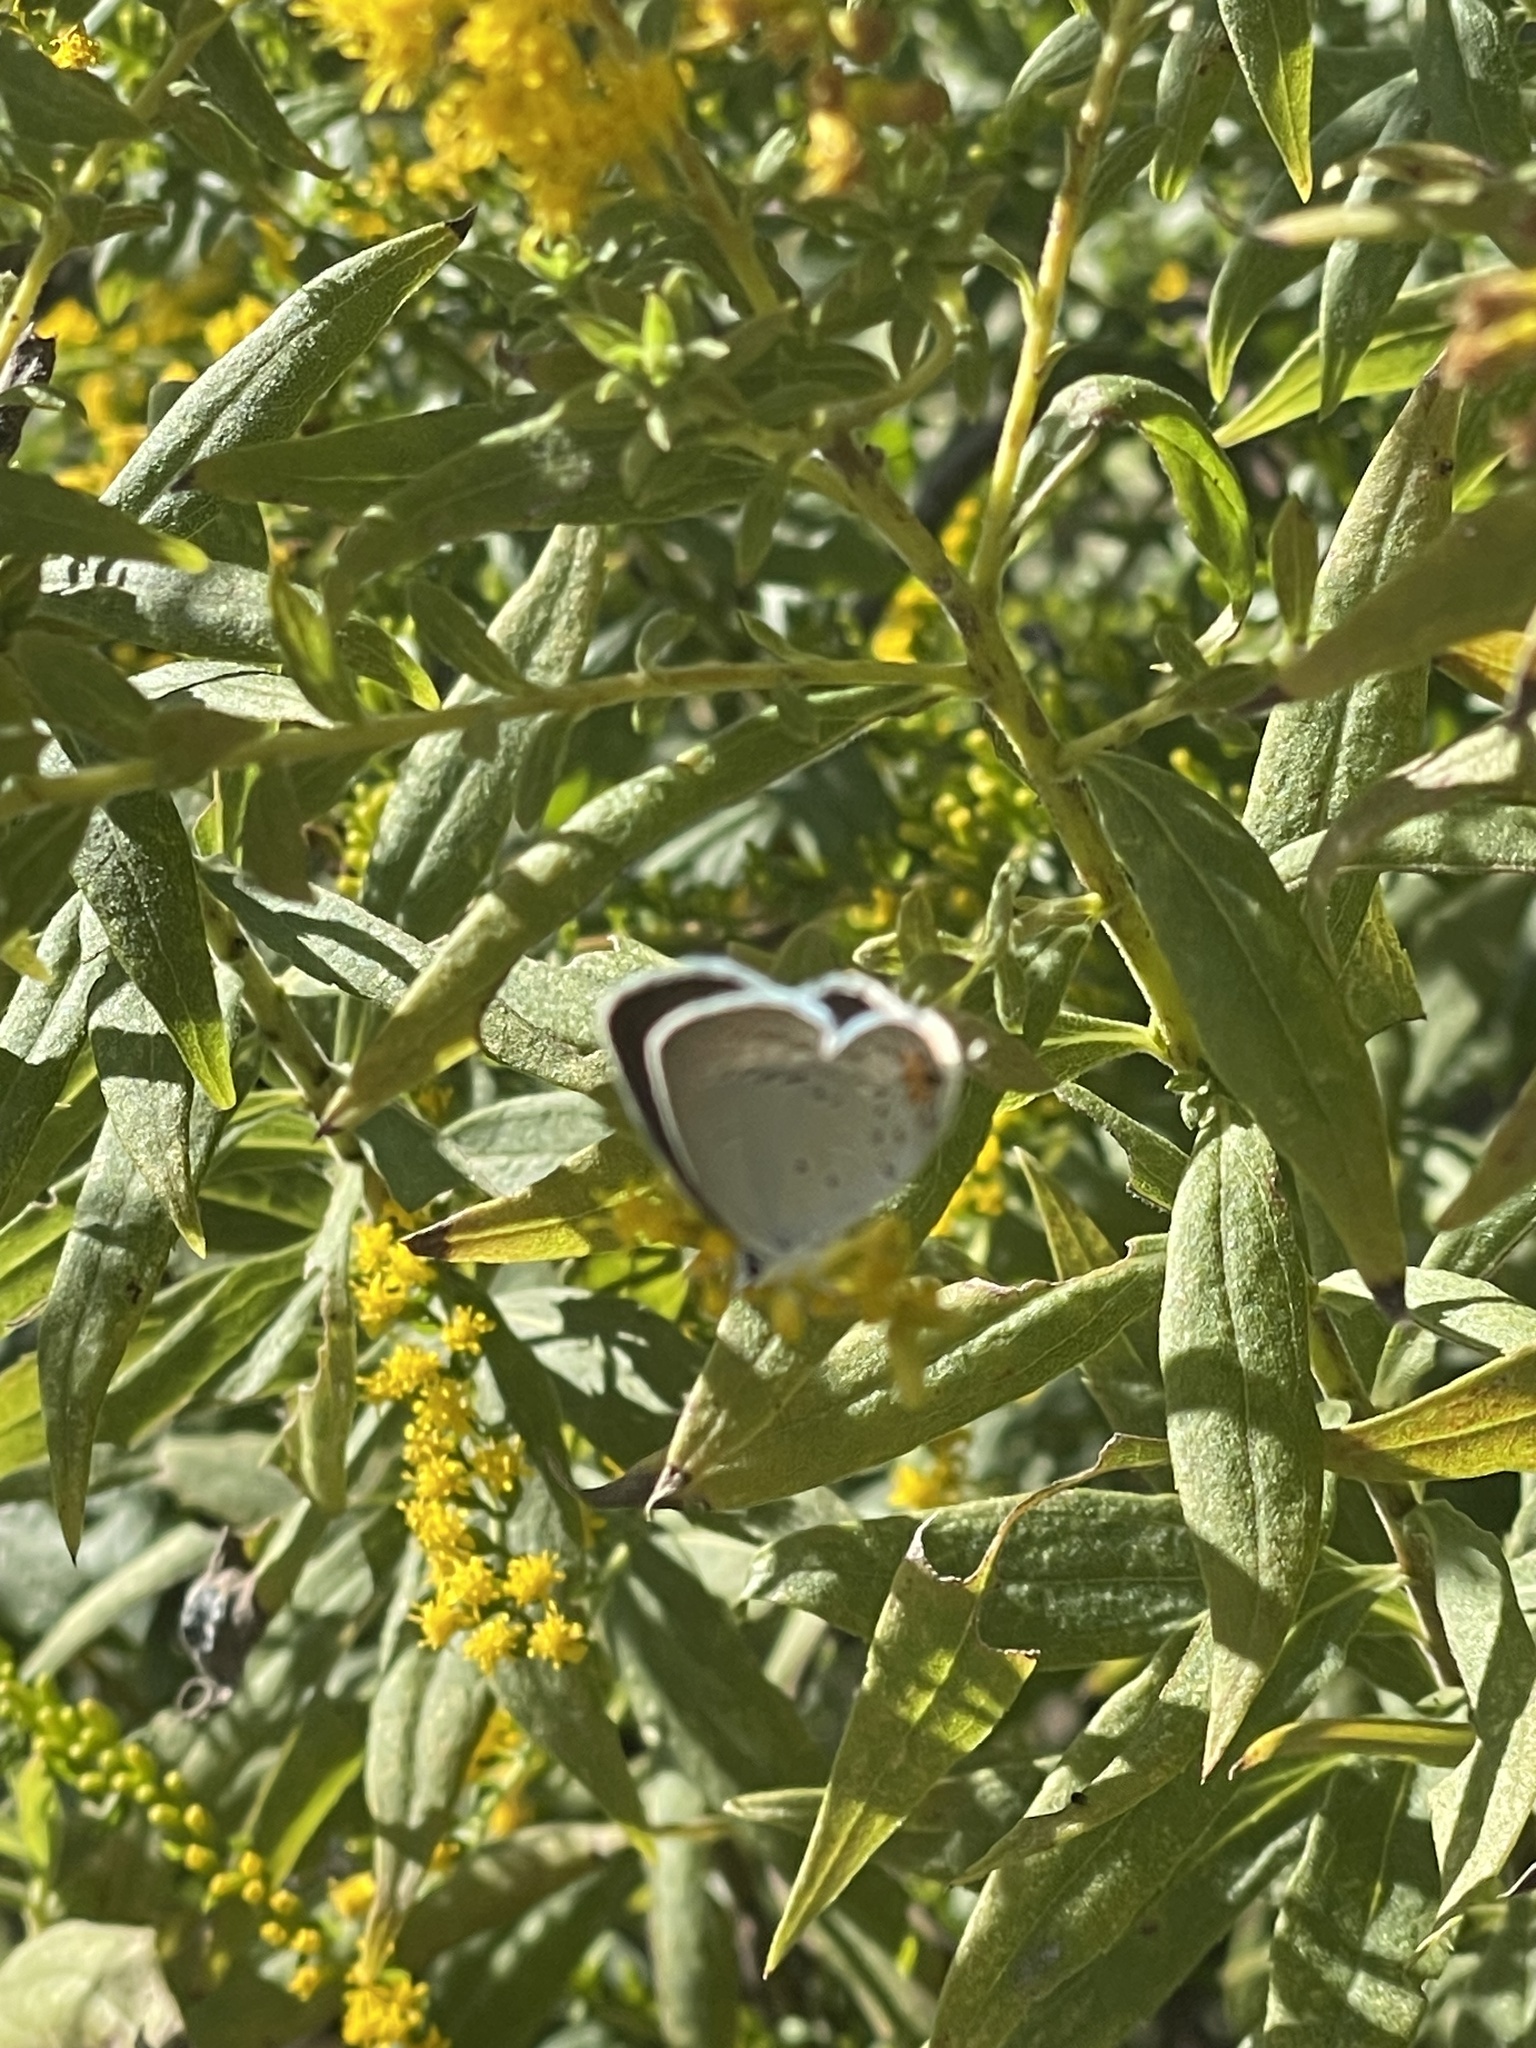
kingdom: Animalia
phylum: Arthropoda
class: Insecta
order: Lepidoptera
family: Lycaenidae
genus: Elkalyce
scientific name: Elkalyce comyntas
